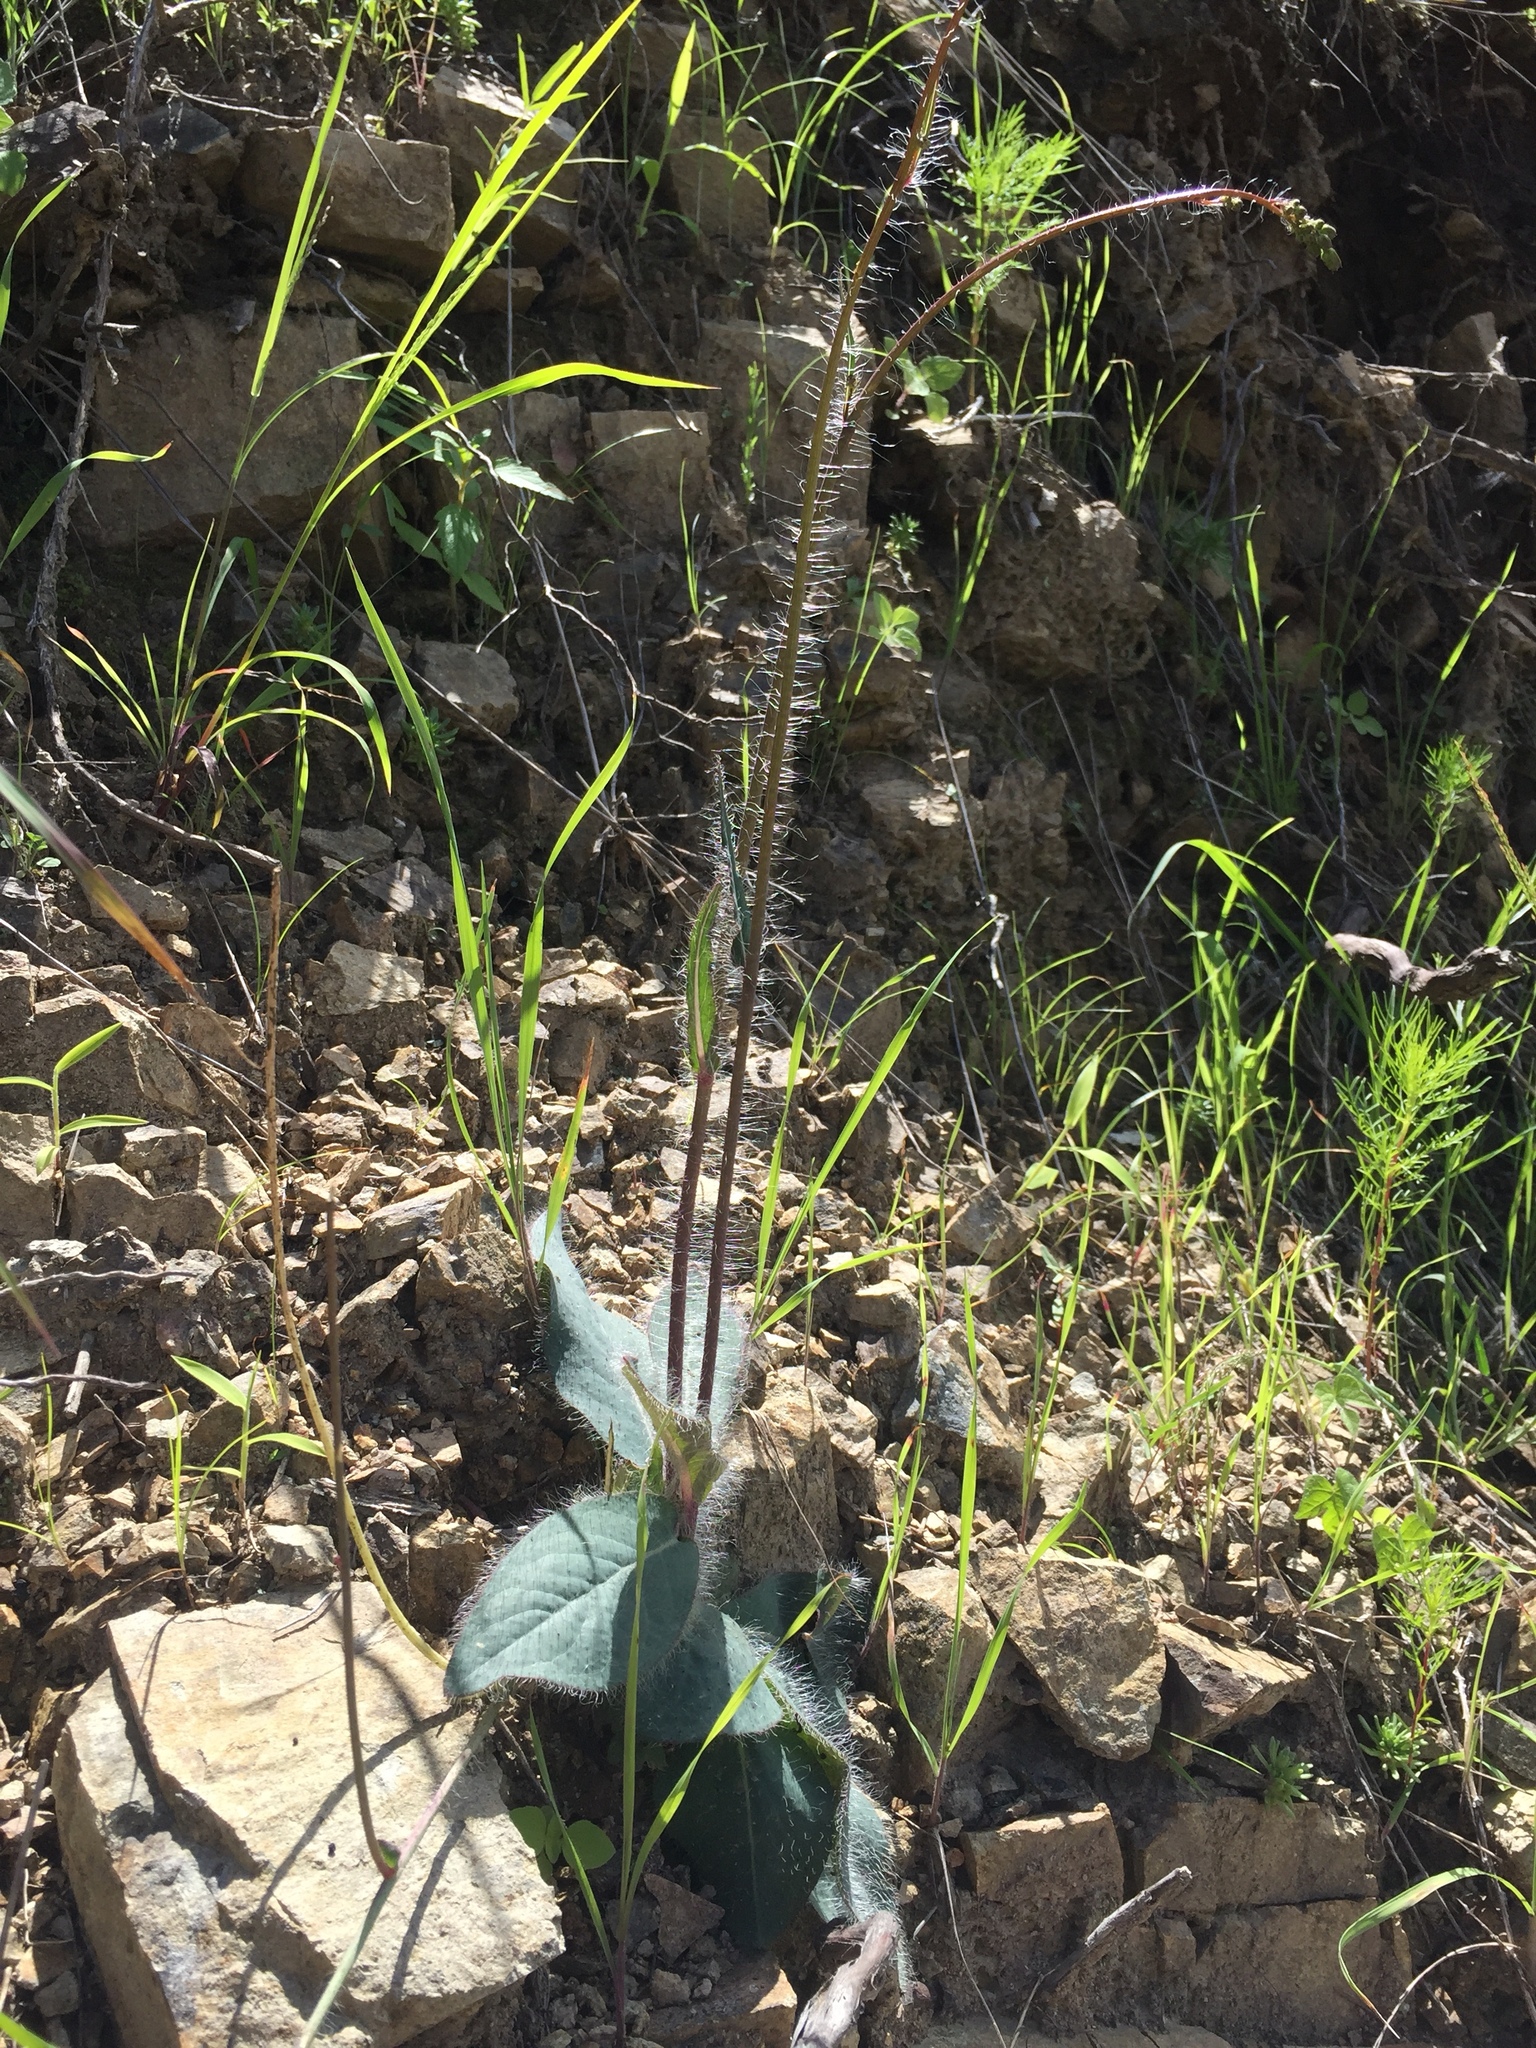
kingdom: Plantae
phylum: Tracheophyta
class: Magnoliopsida
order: Asterales
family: Asteraceae
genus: Hieracium
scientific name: Hieracium fendleri
